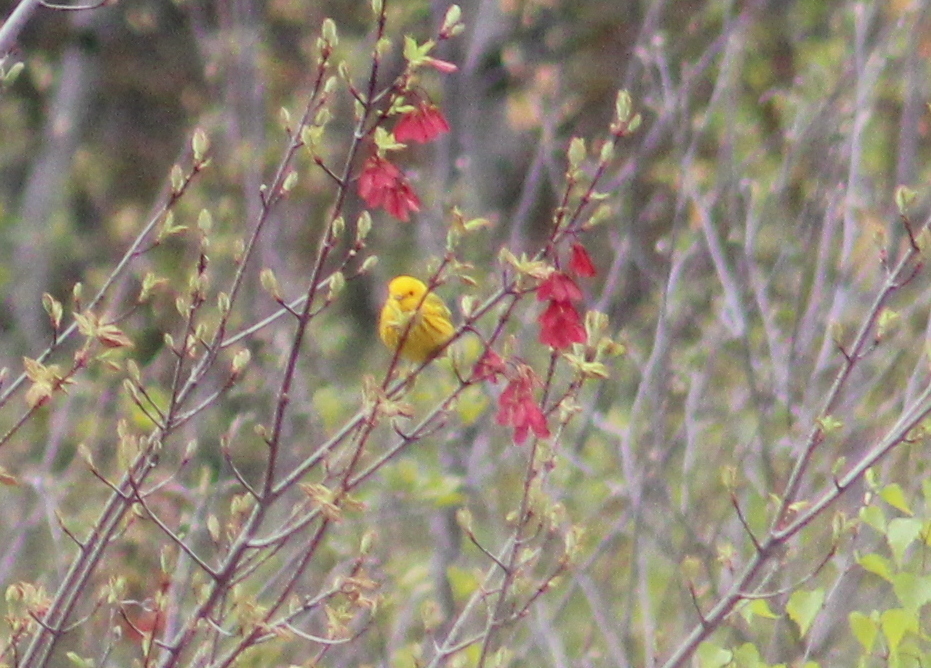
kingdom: Animalia
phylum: Chordata
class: Aves
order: Passeriformes
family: Parulidae
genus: Setophaga
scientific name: Setophaga petechia
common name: Yellow warbler
